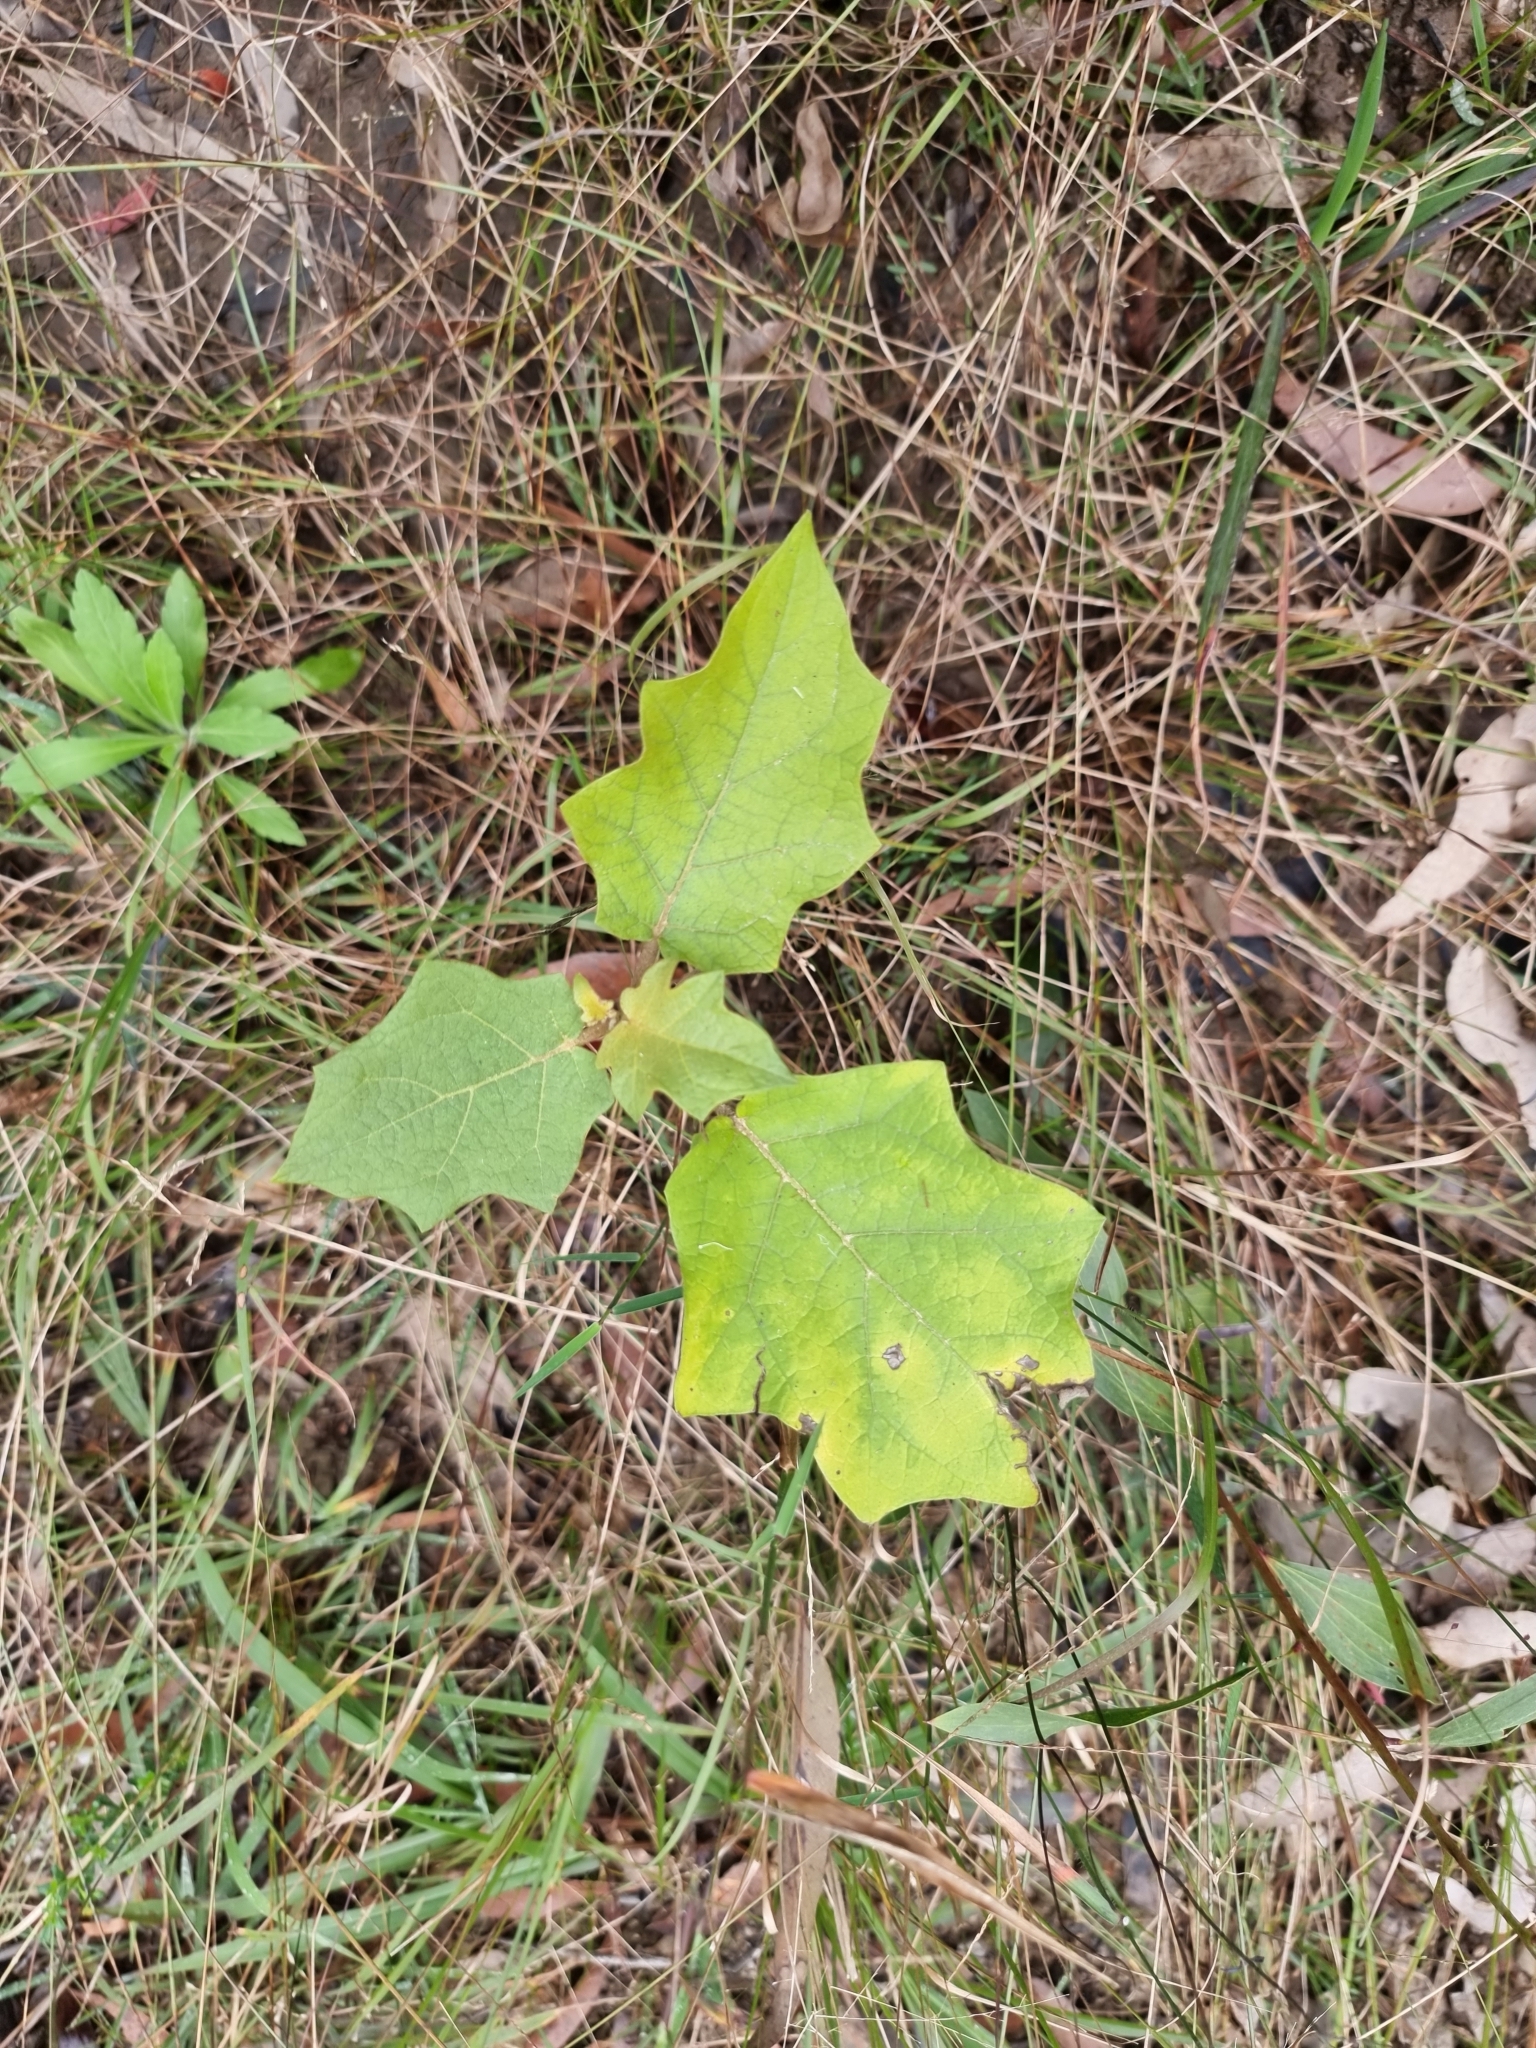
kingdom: Plantae
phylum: Tracheophyta
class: Magnoliopsida
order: Solanales
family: Solanaceae
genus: Solanum
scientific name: Solanum torvum
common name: Turkey berry
